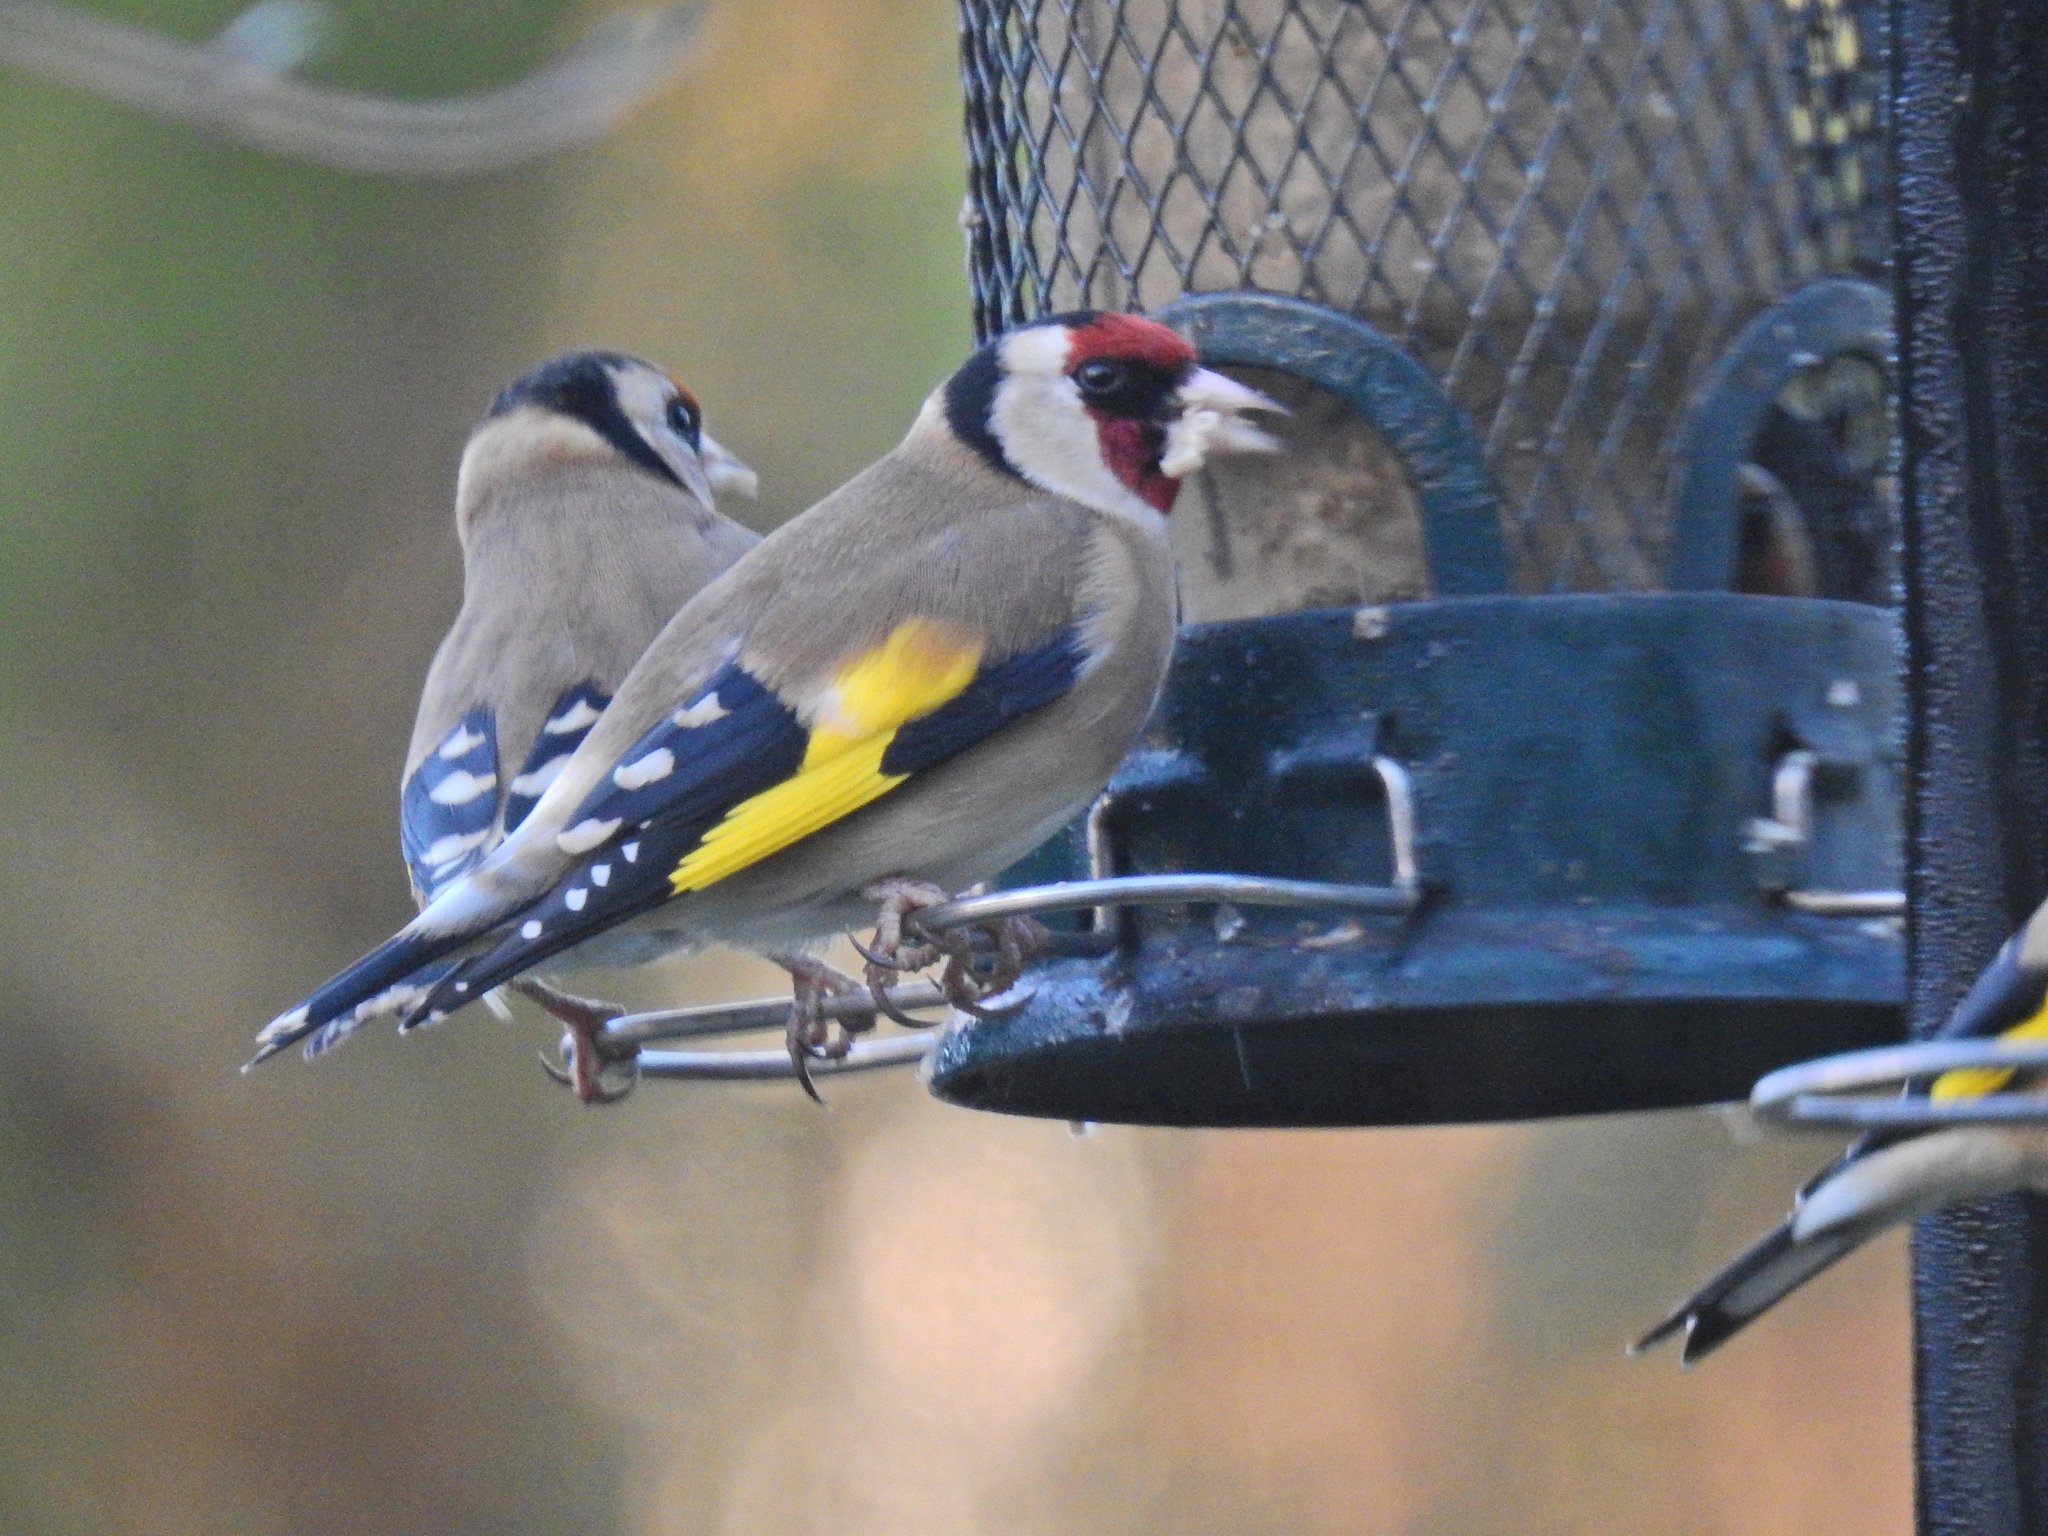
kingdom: Animalia
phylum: Chordata
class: Aves
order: Passeriformes
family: Fringillidae
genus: Carduelis
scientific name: Carduelis carduelis
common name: European goldfinch
